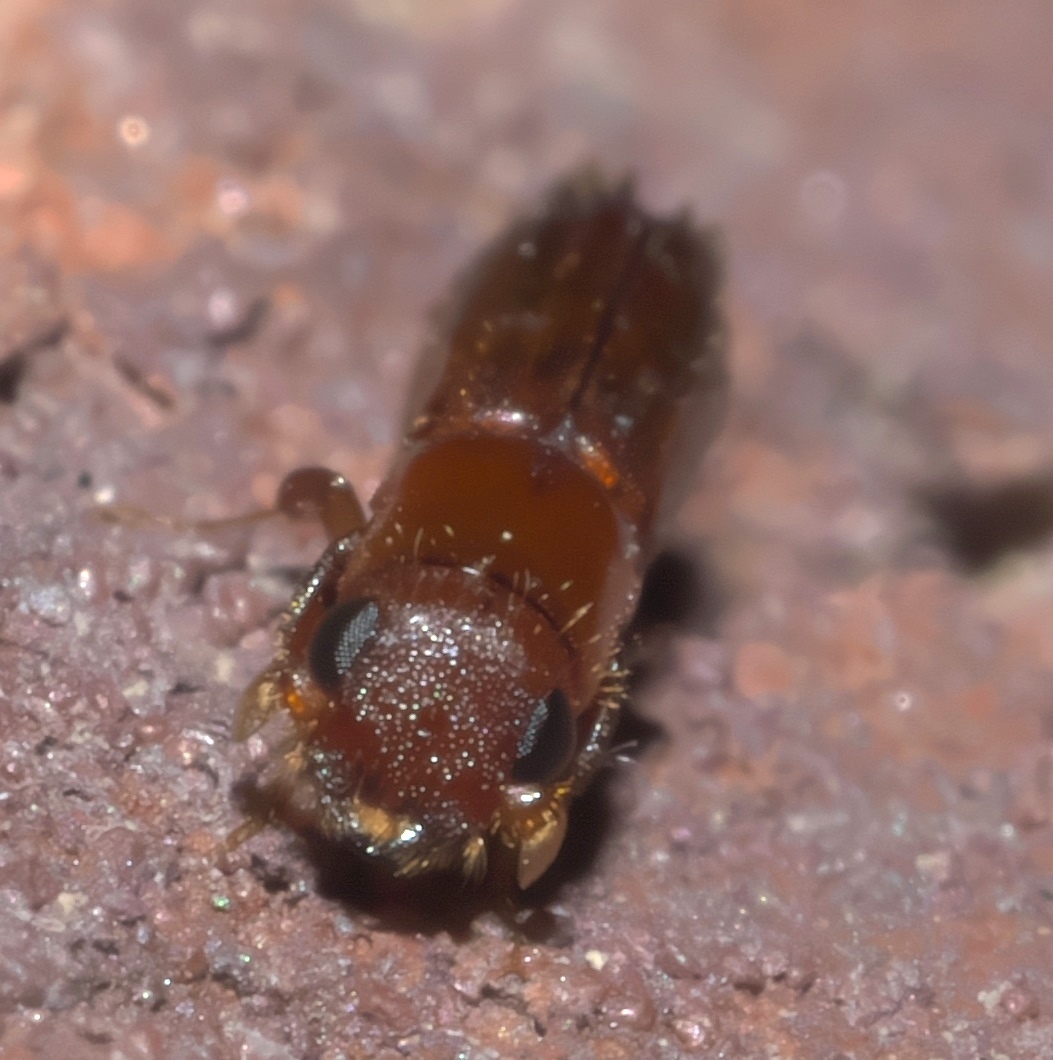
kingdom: Animalia
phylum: Arthropoda
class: Insecta
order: Coleoptera
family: Curculionidae
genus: Euplatypus
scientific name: Euplatypus compositus
